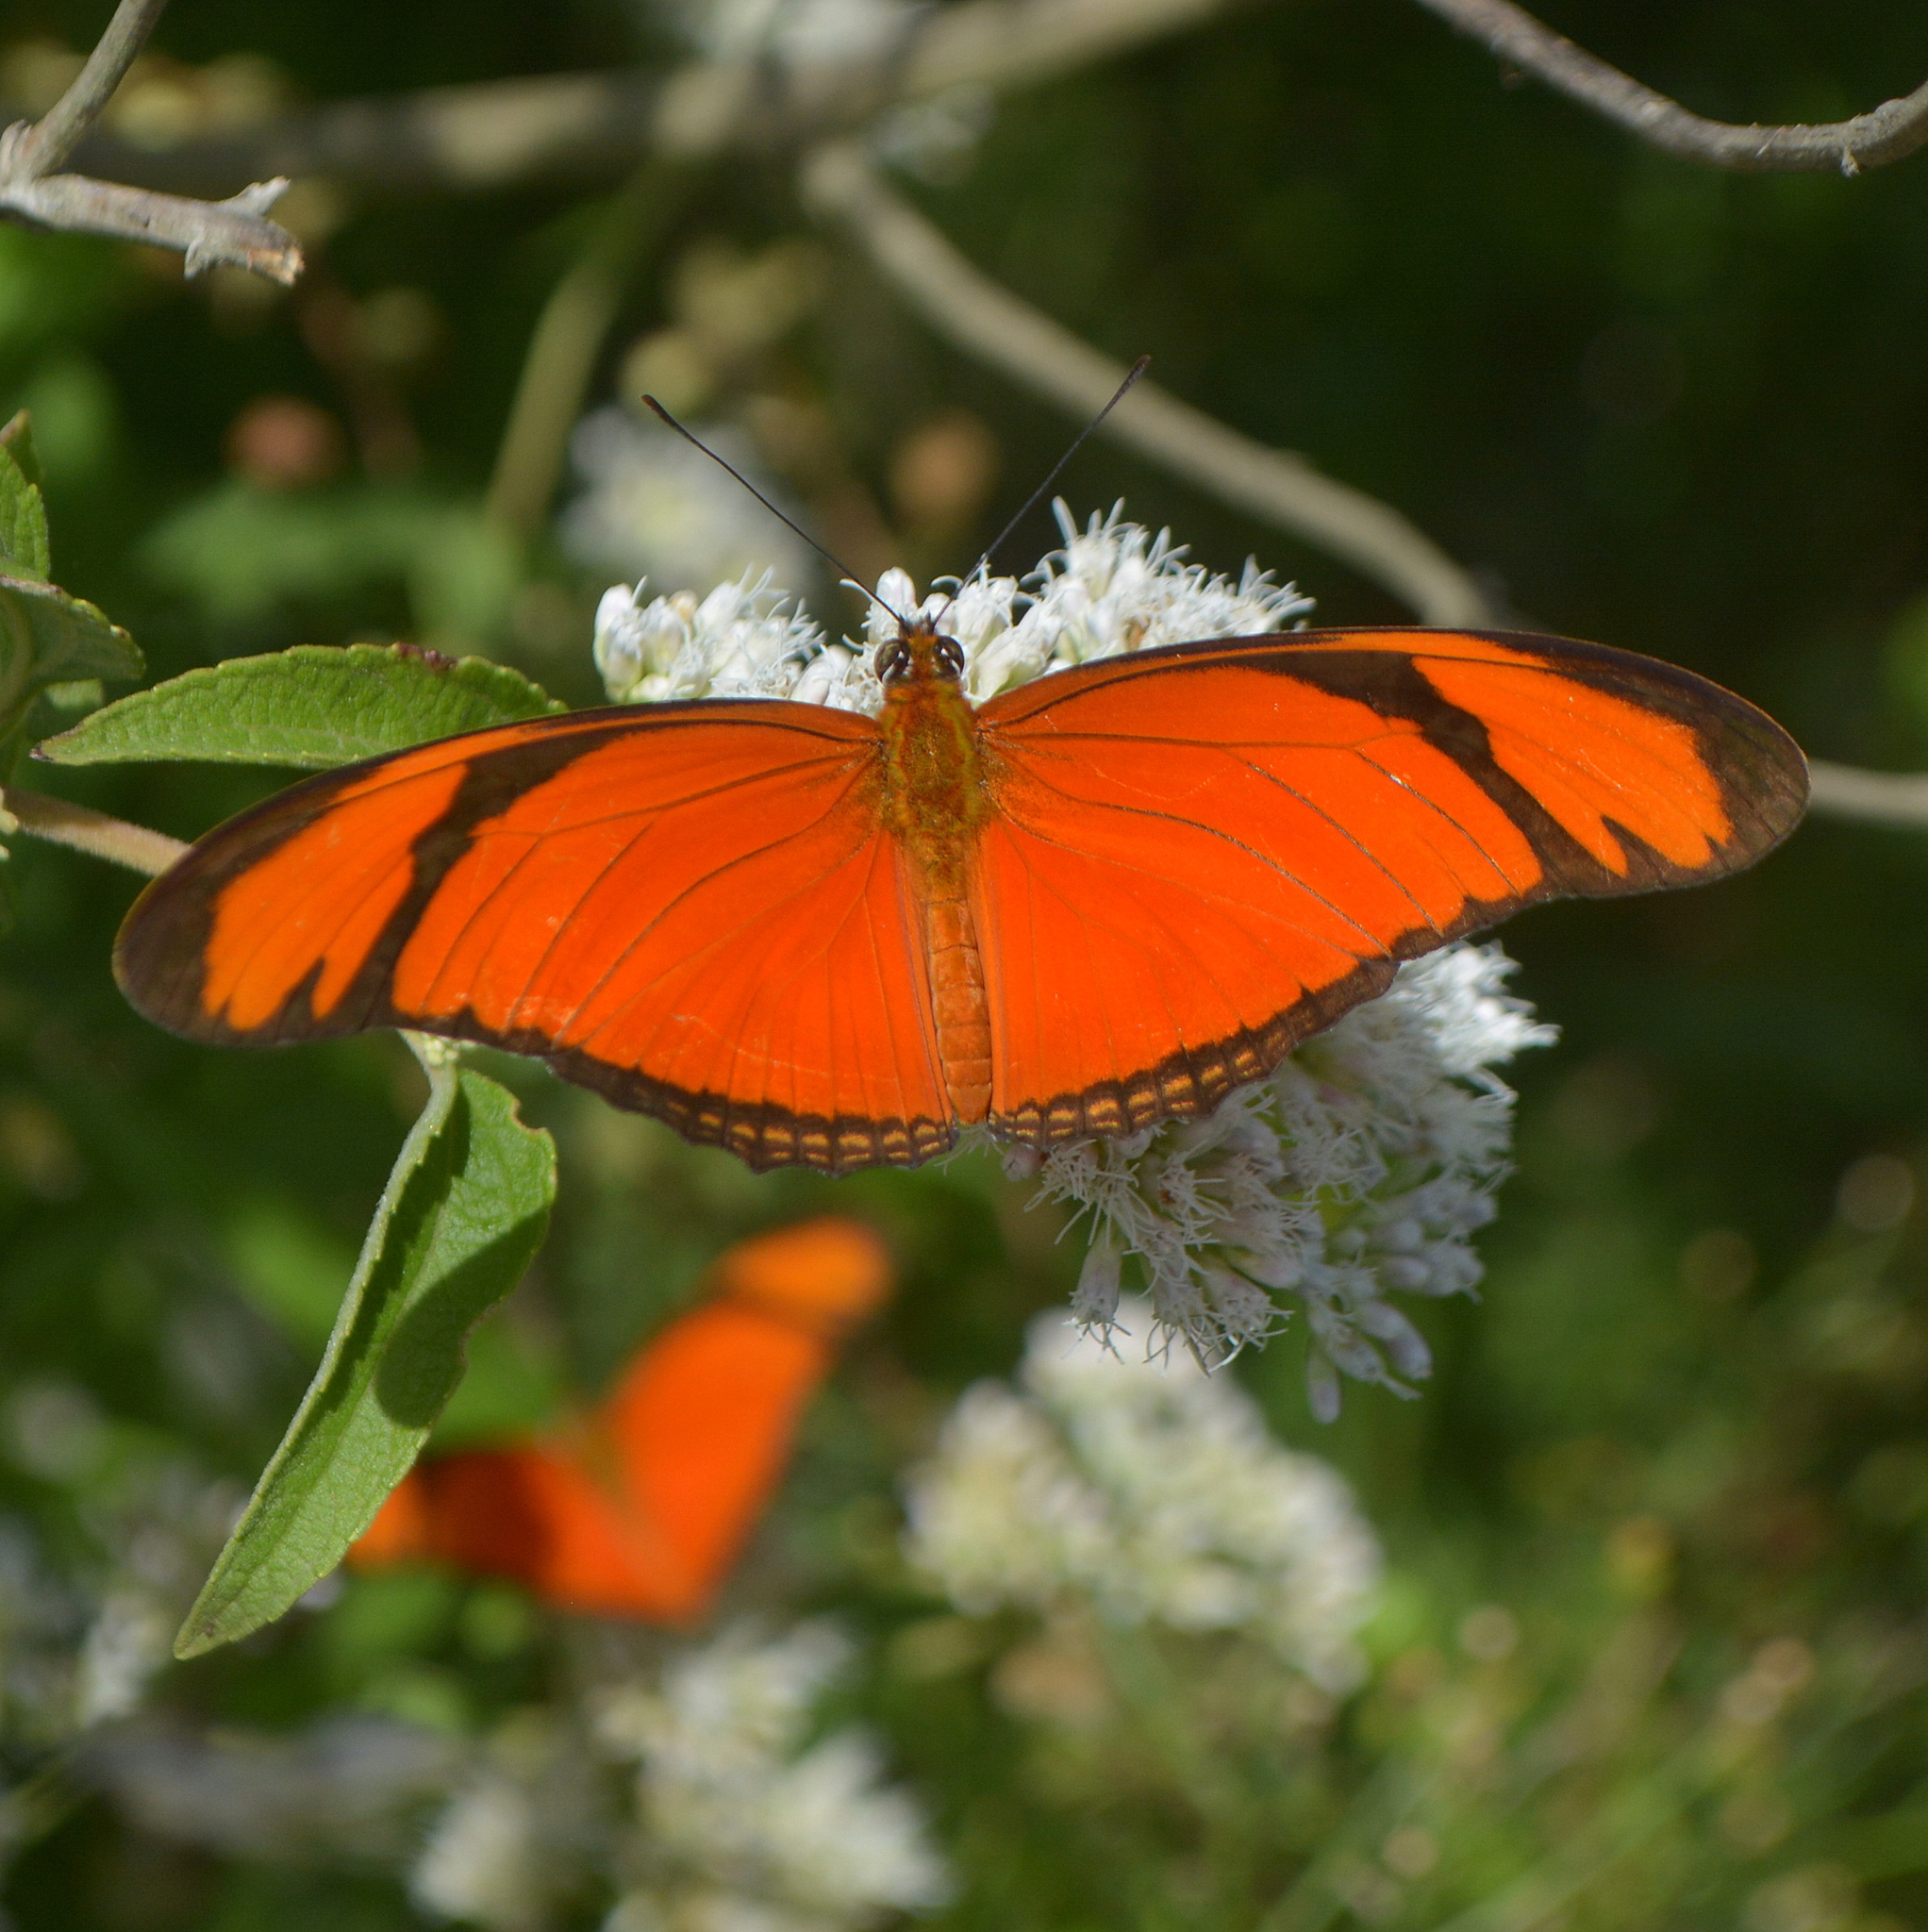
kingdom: Animalia
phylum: Arthropoda
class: Insecta
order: Lepidoptera
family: Nymphalidae
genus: Dryas
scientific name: Dryas iulia
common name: Flambeau
